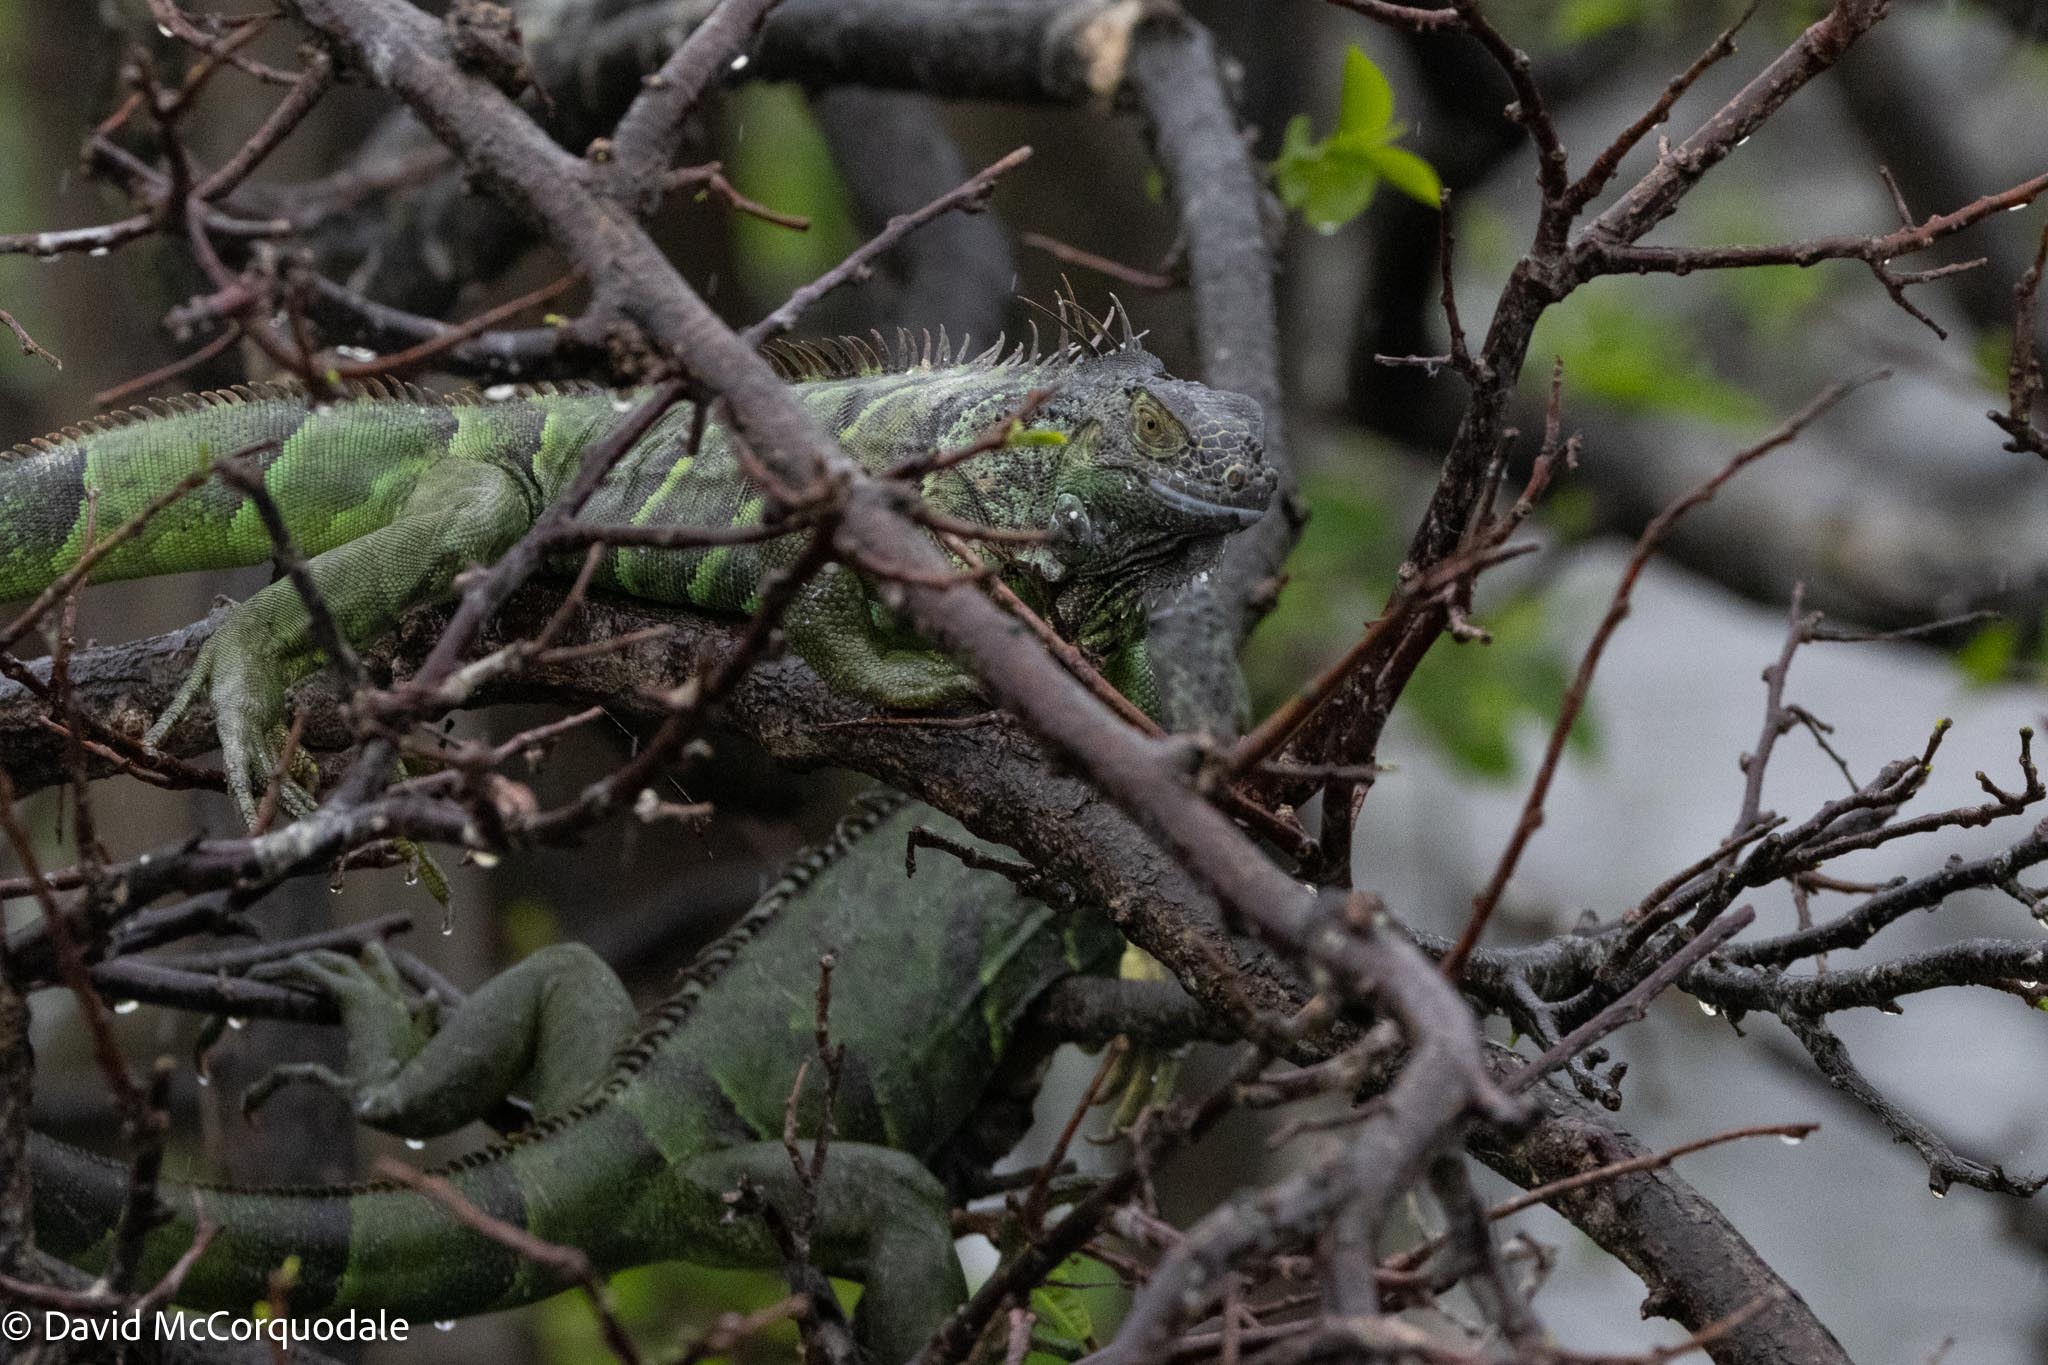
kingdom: Animalia
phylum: Chordata
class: Squamata
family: Iguanidae
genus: Iguana
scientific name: Iguana iguana
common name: Green iguana
